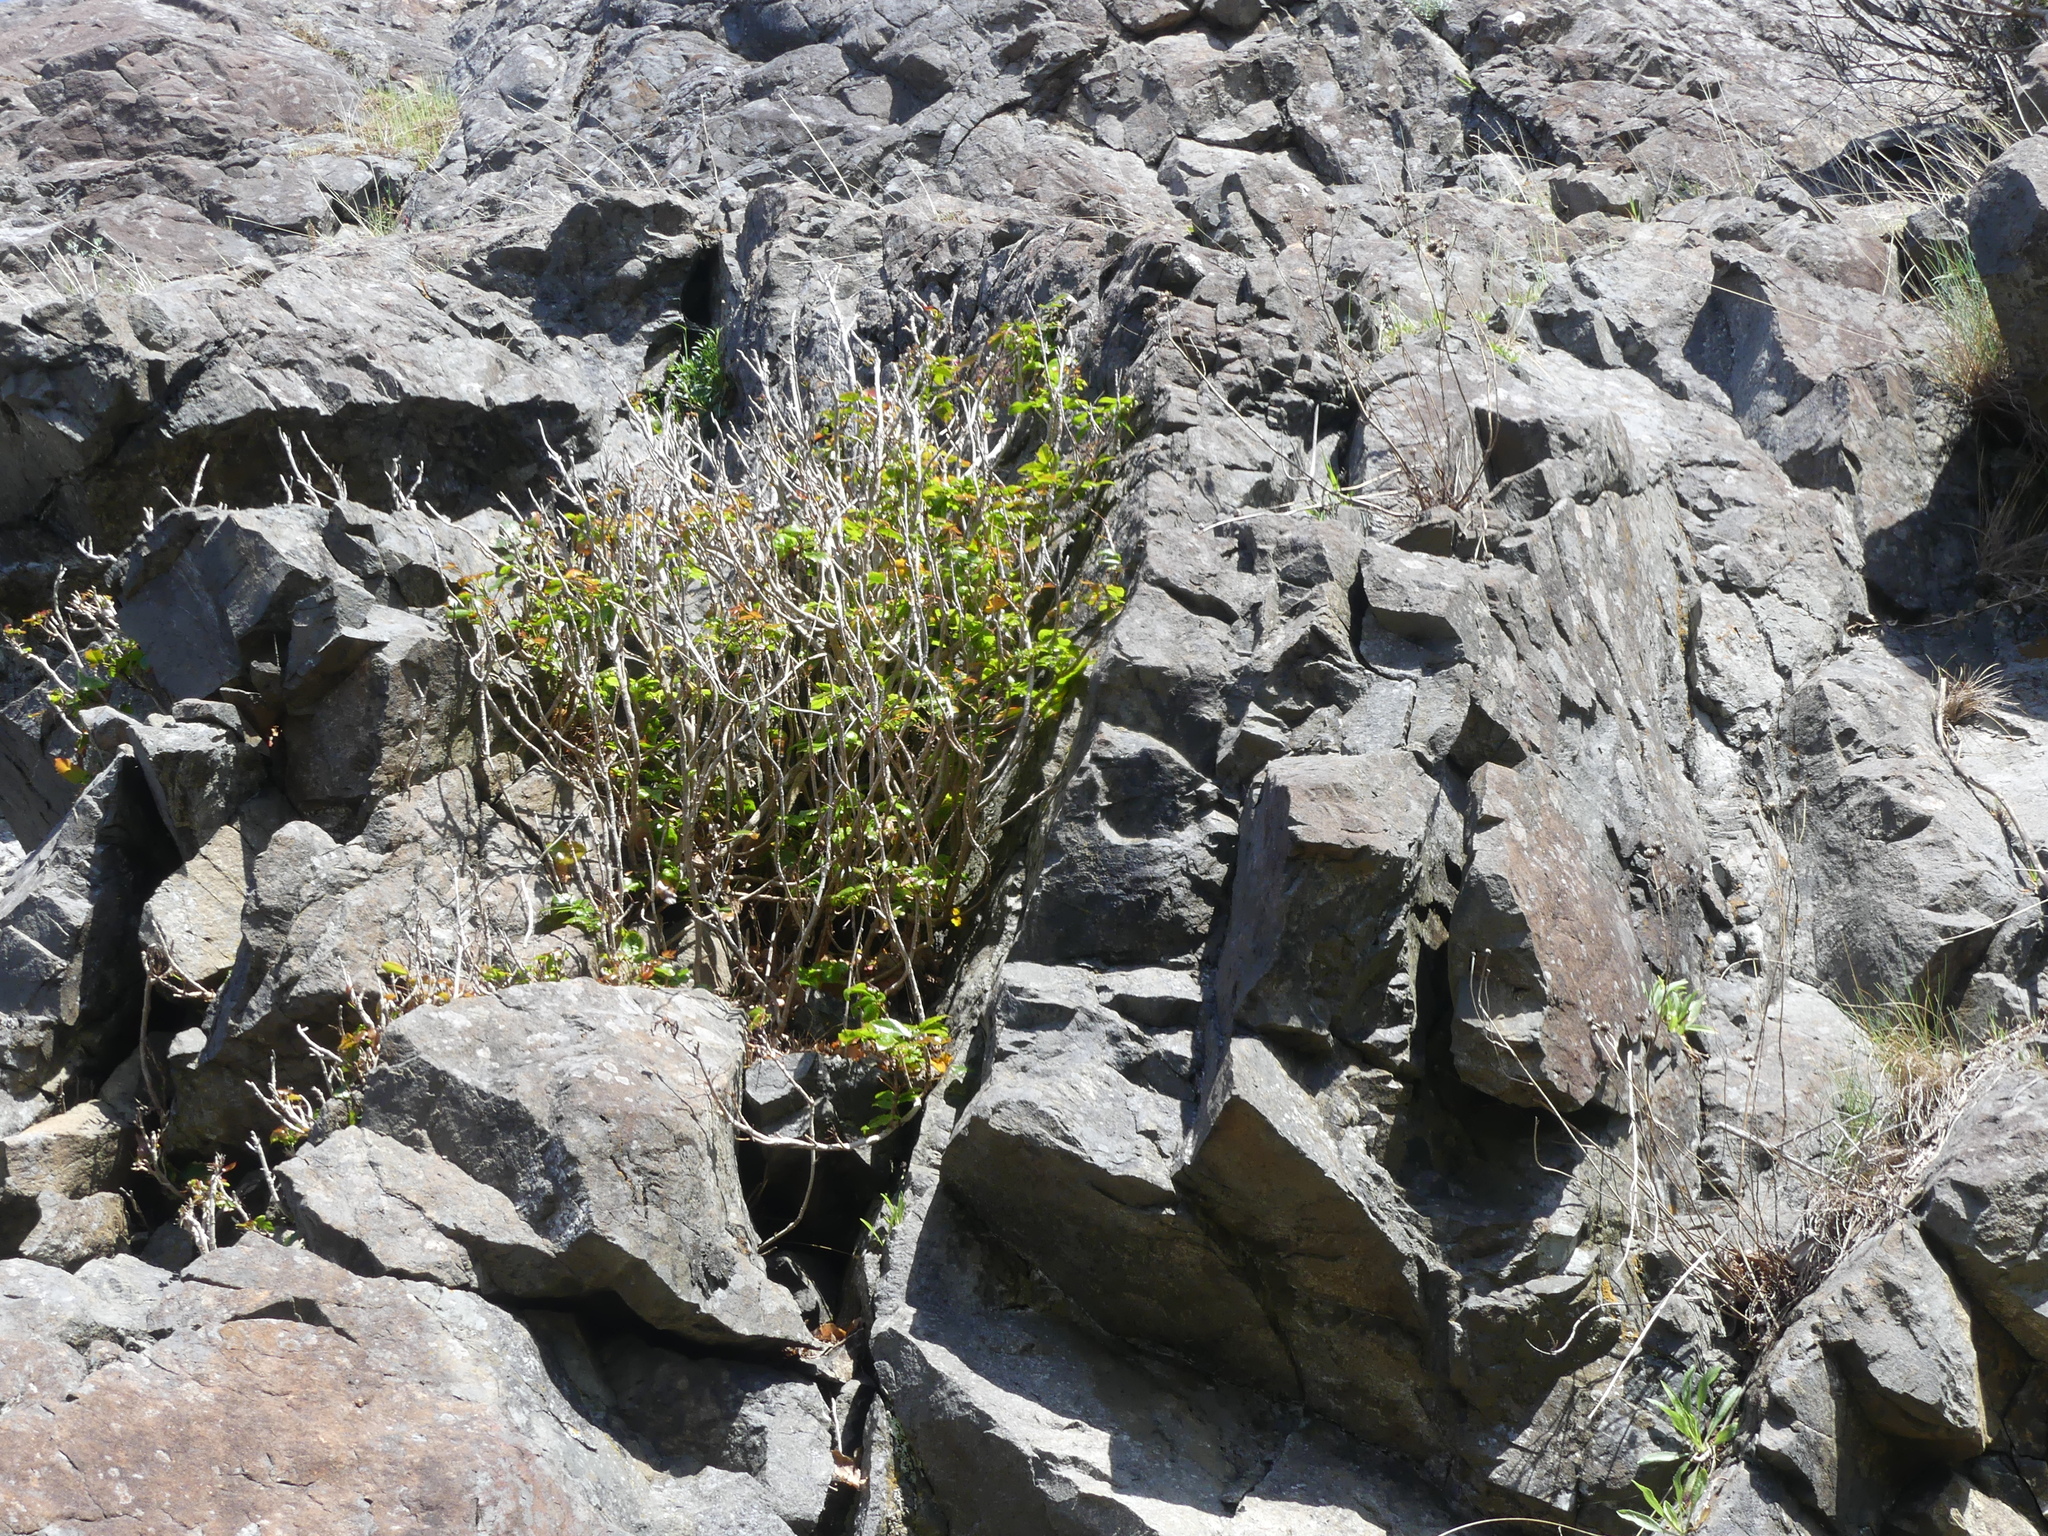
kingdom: Plantae
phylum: Tracheophyta
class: Magnoliopsida
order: Ranunculales
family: Berberidaceae
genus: Mahonia
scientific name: Mahonia aquifolium
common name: Oregon-grape
